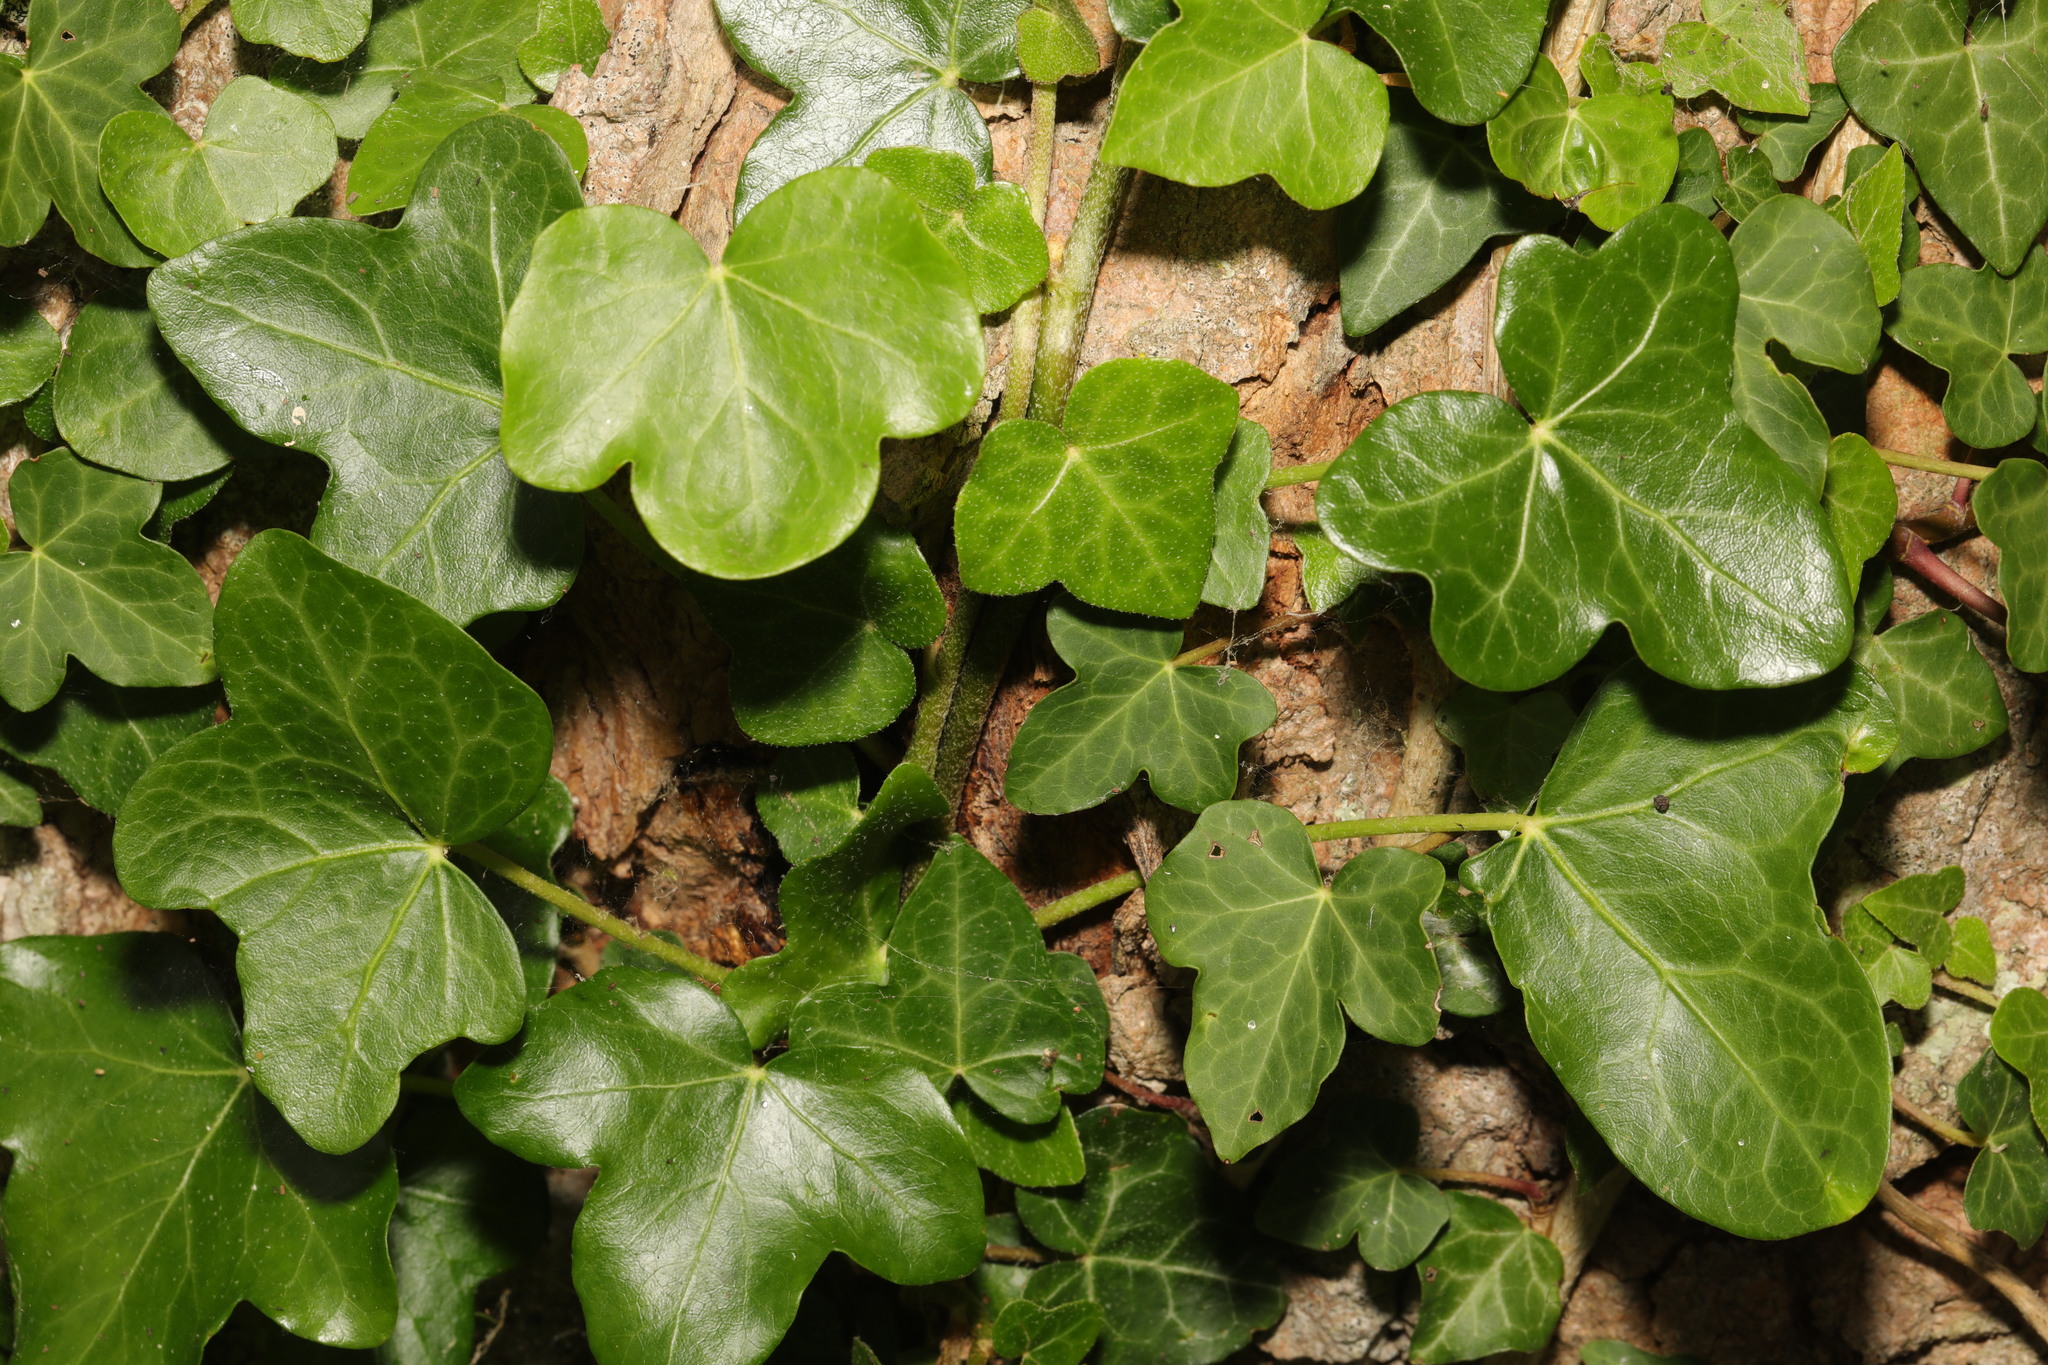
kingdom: Plantae
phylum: Tracheophyta
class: Magnoliopsida
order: Apiales
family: Araliaceae
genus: Hedera
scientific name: Hedera helix
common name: Ivy
